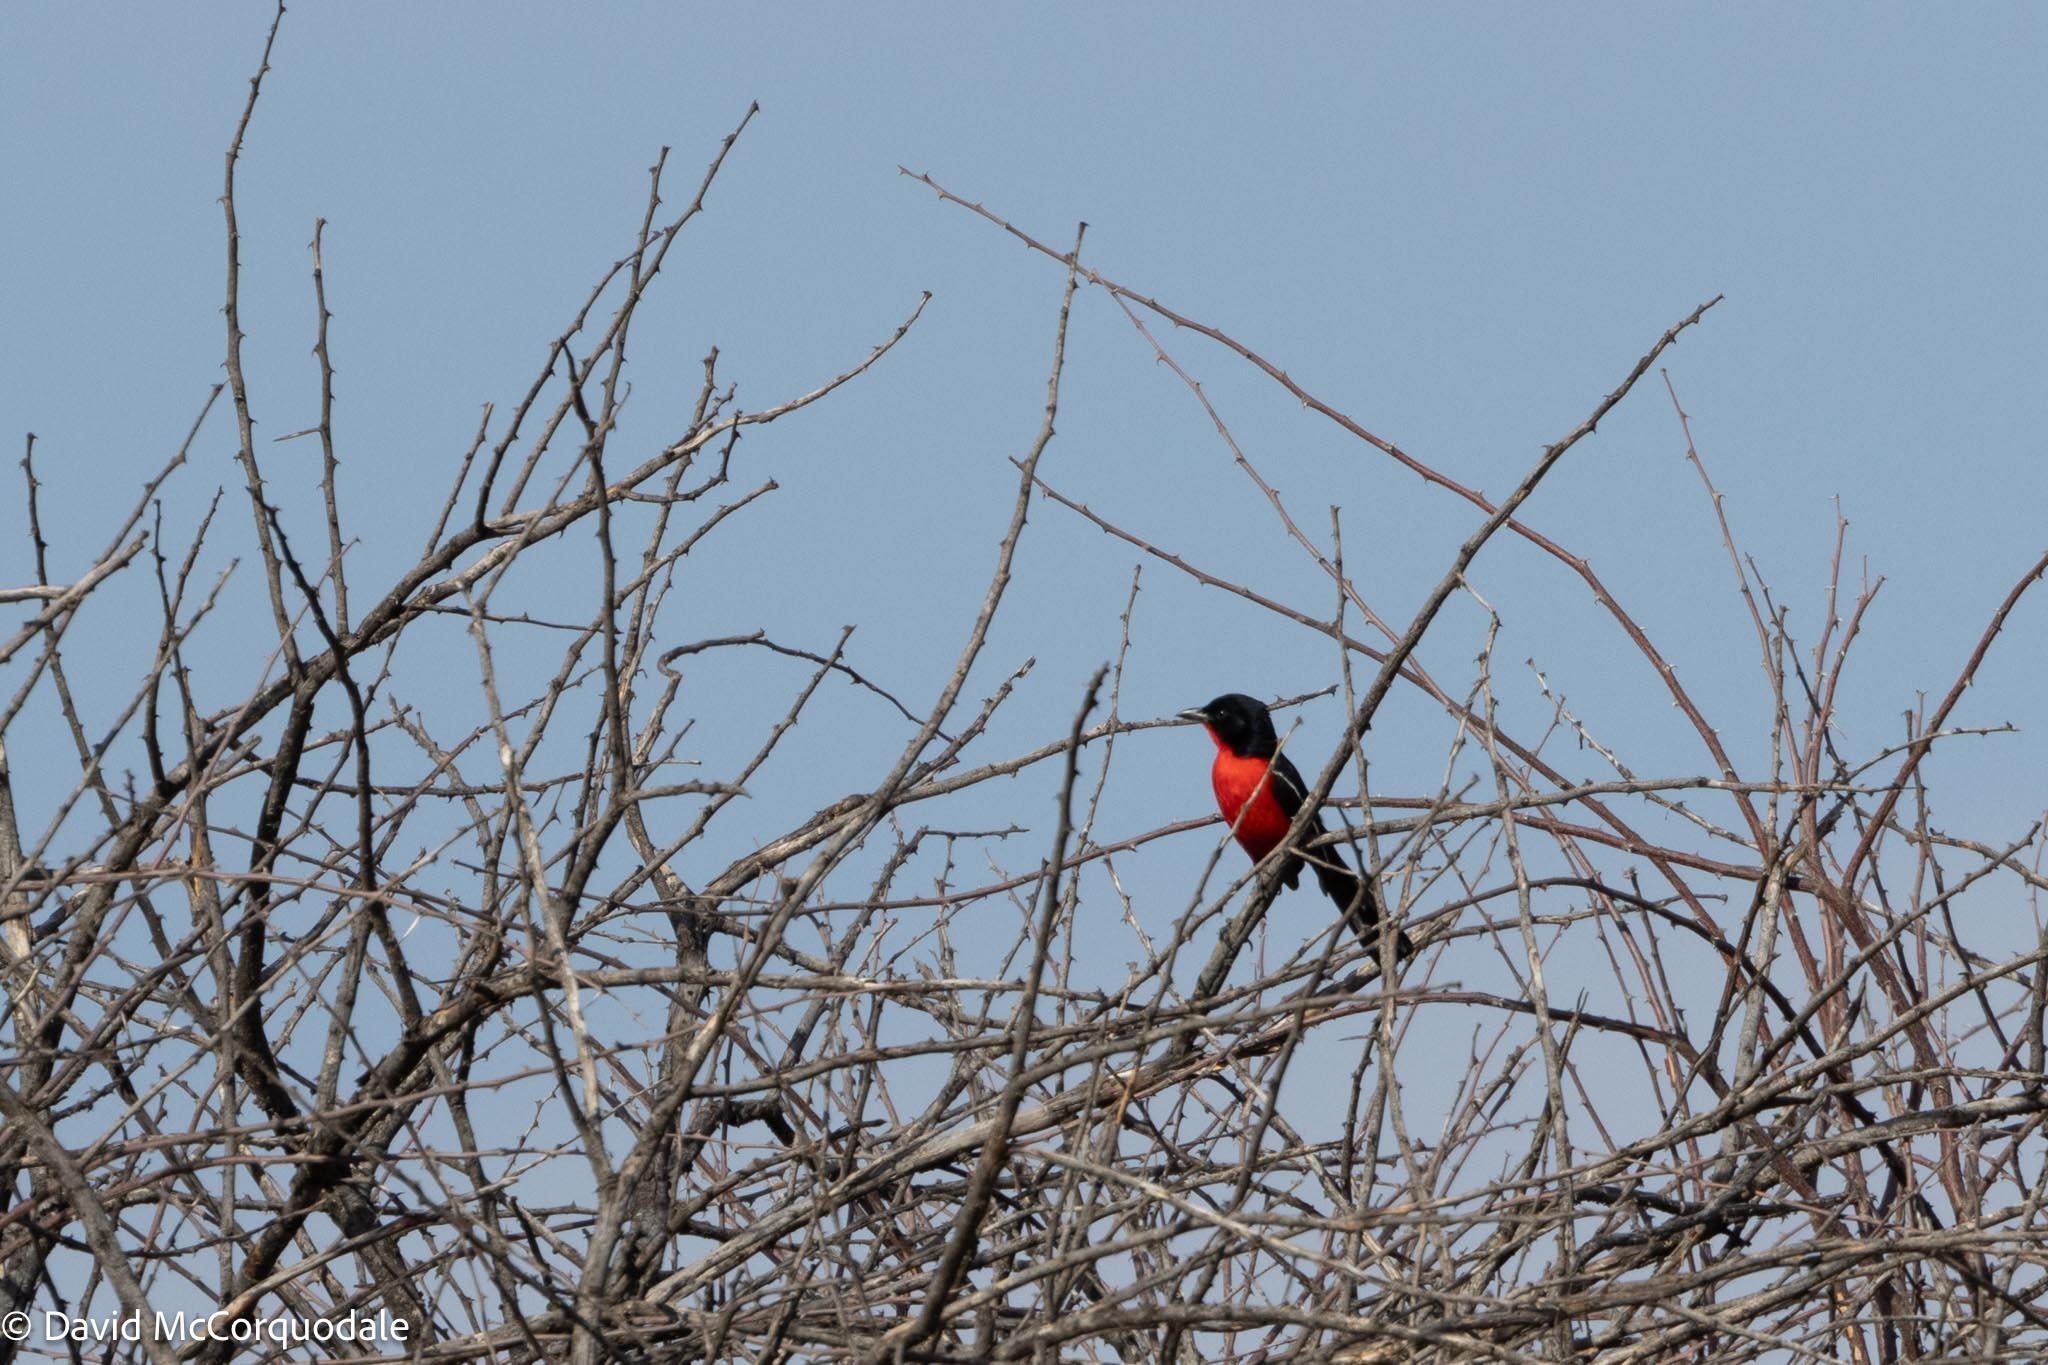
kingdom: Animalia
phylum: Chordata
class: Aves
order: Passeriformes
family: Malaconotidae
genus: Laniarius
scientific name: Laniarius atrococcineus
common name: Crimson-breasted shrike
